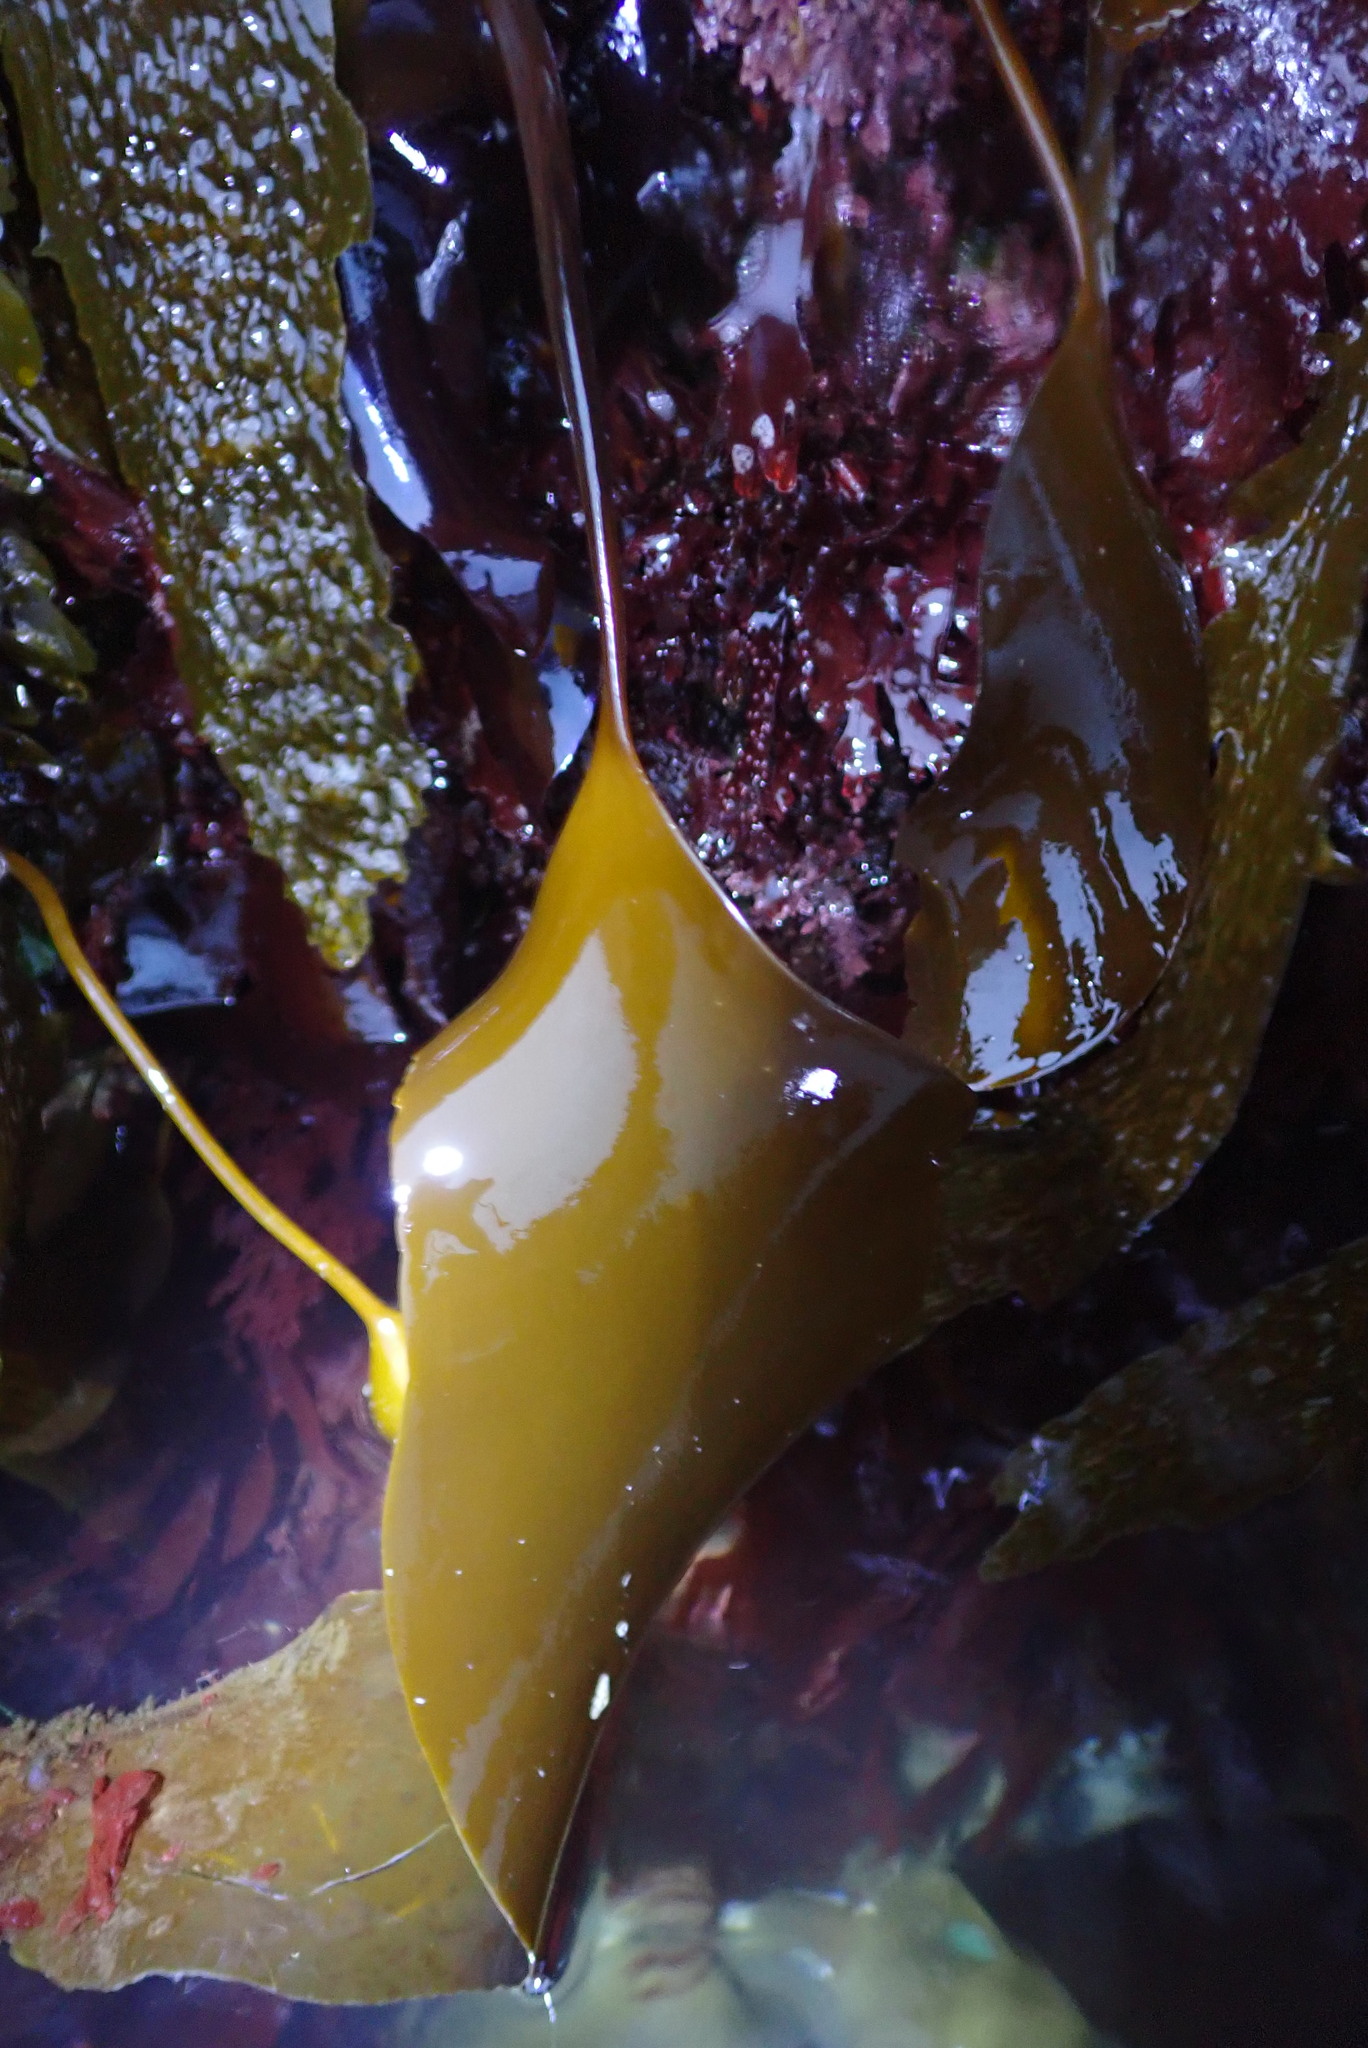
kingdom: Chromista
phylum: Ochrophyta
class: Phaeophyceae
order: Laminariales
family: Laminariaceae
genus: Laminaria
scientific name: Laminaria setchellii
